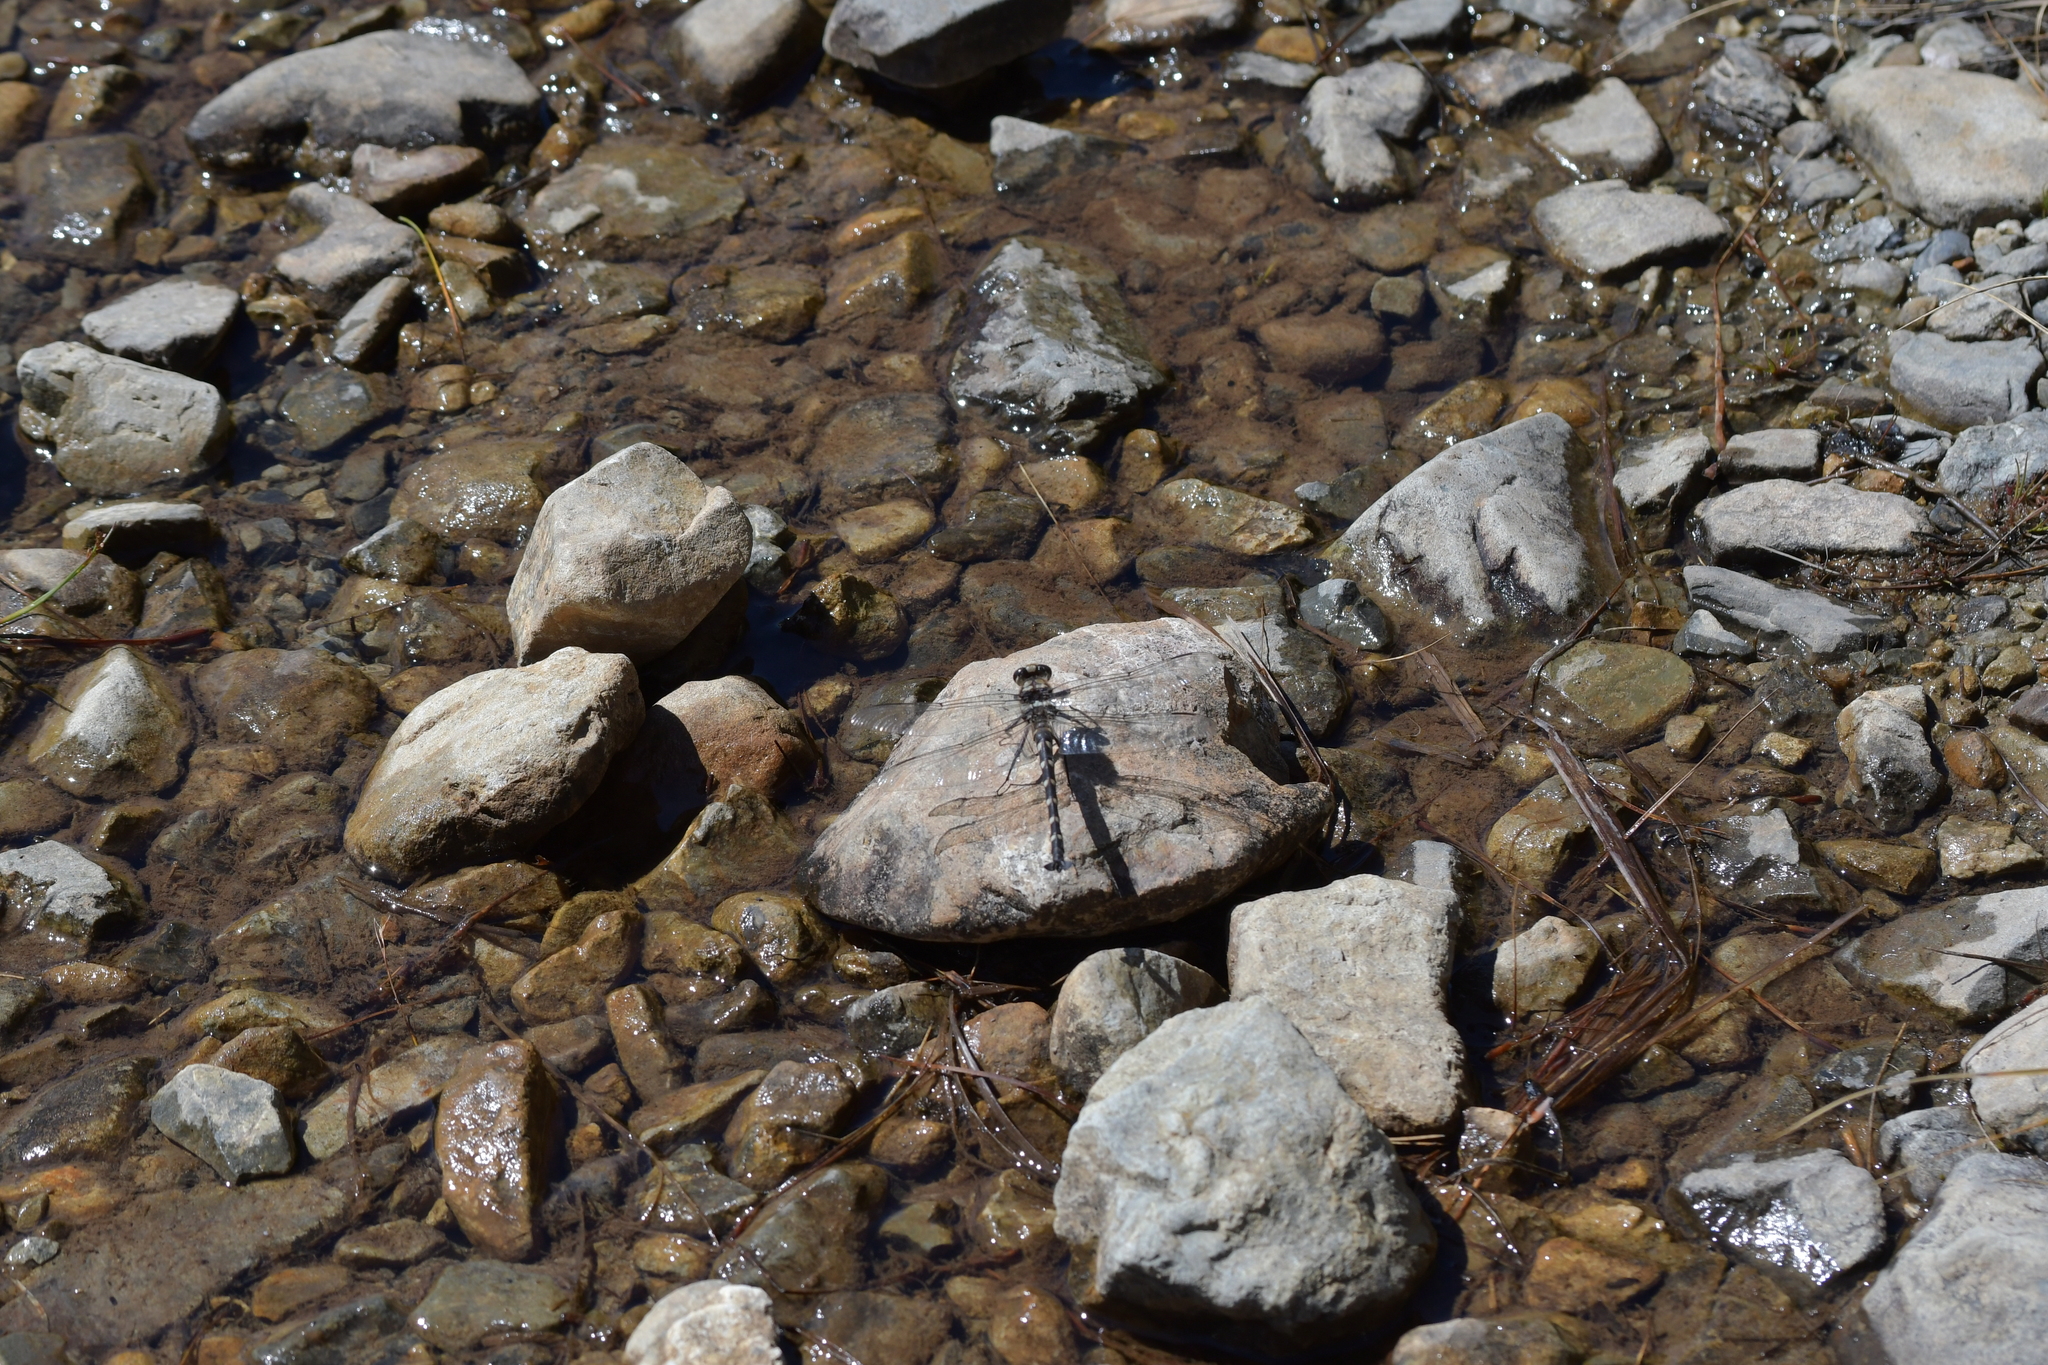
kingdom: Animalia
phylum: Arthropoda
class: Insecta
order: Odonata
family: Petaluridae
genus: Uropetala
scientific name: Uropetala chiltoni
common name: Mountain giant dragonfly
